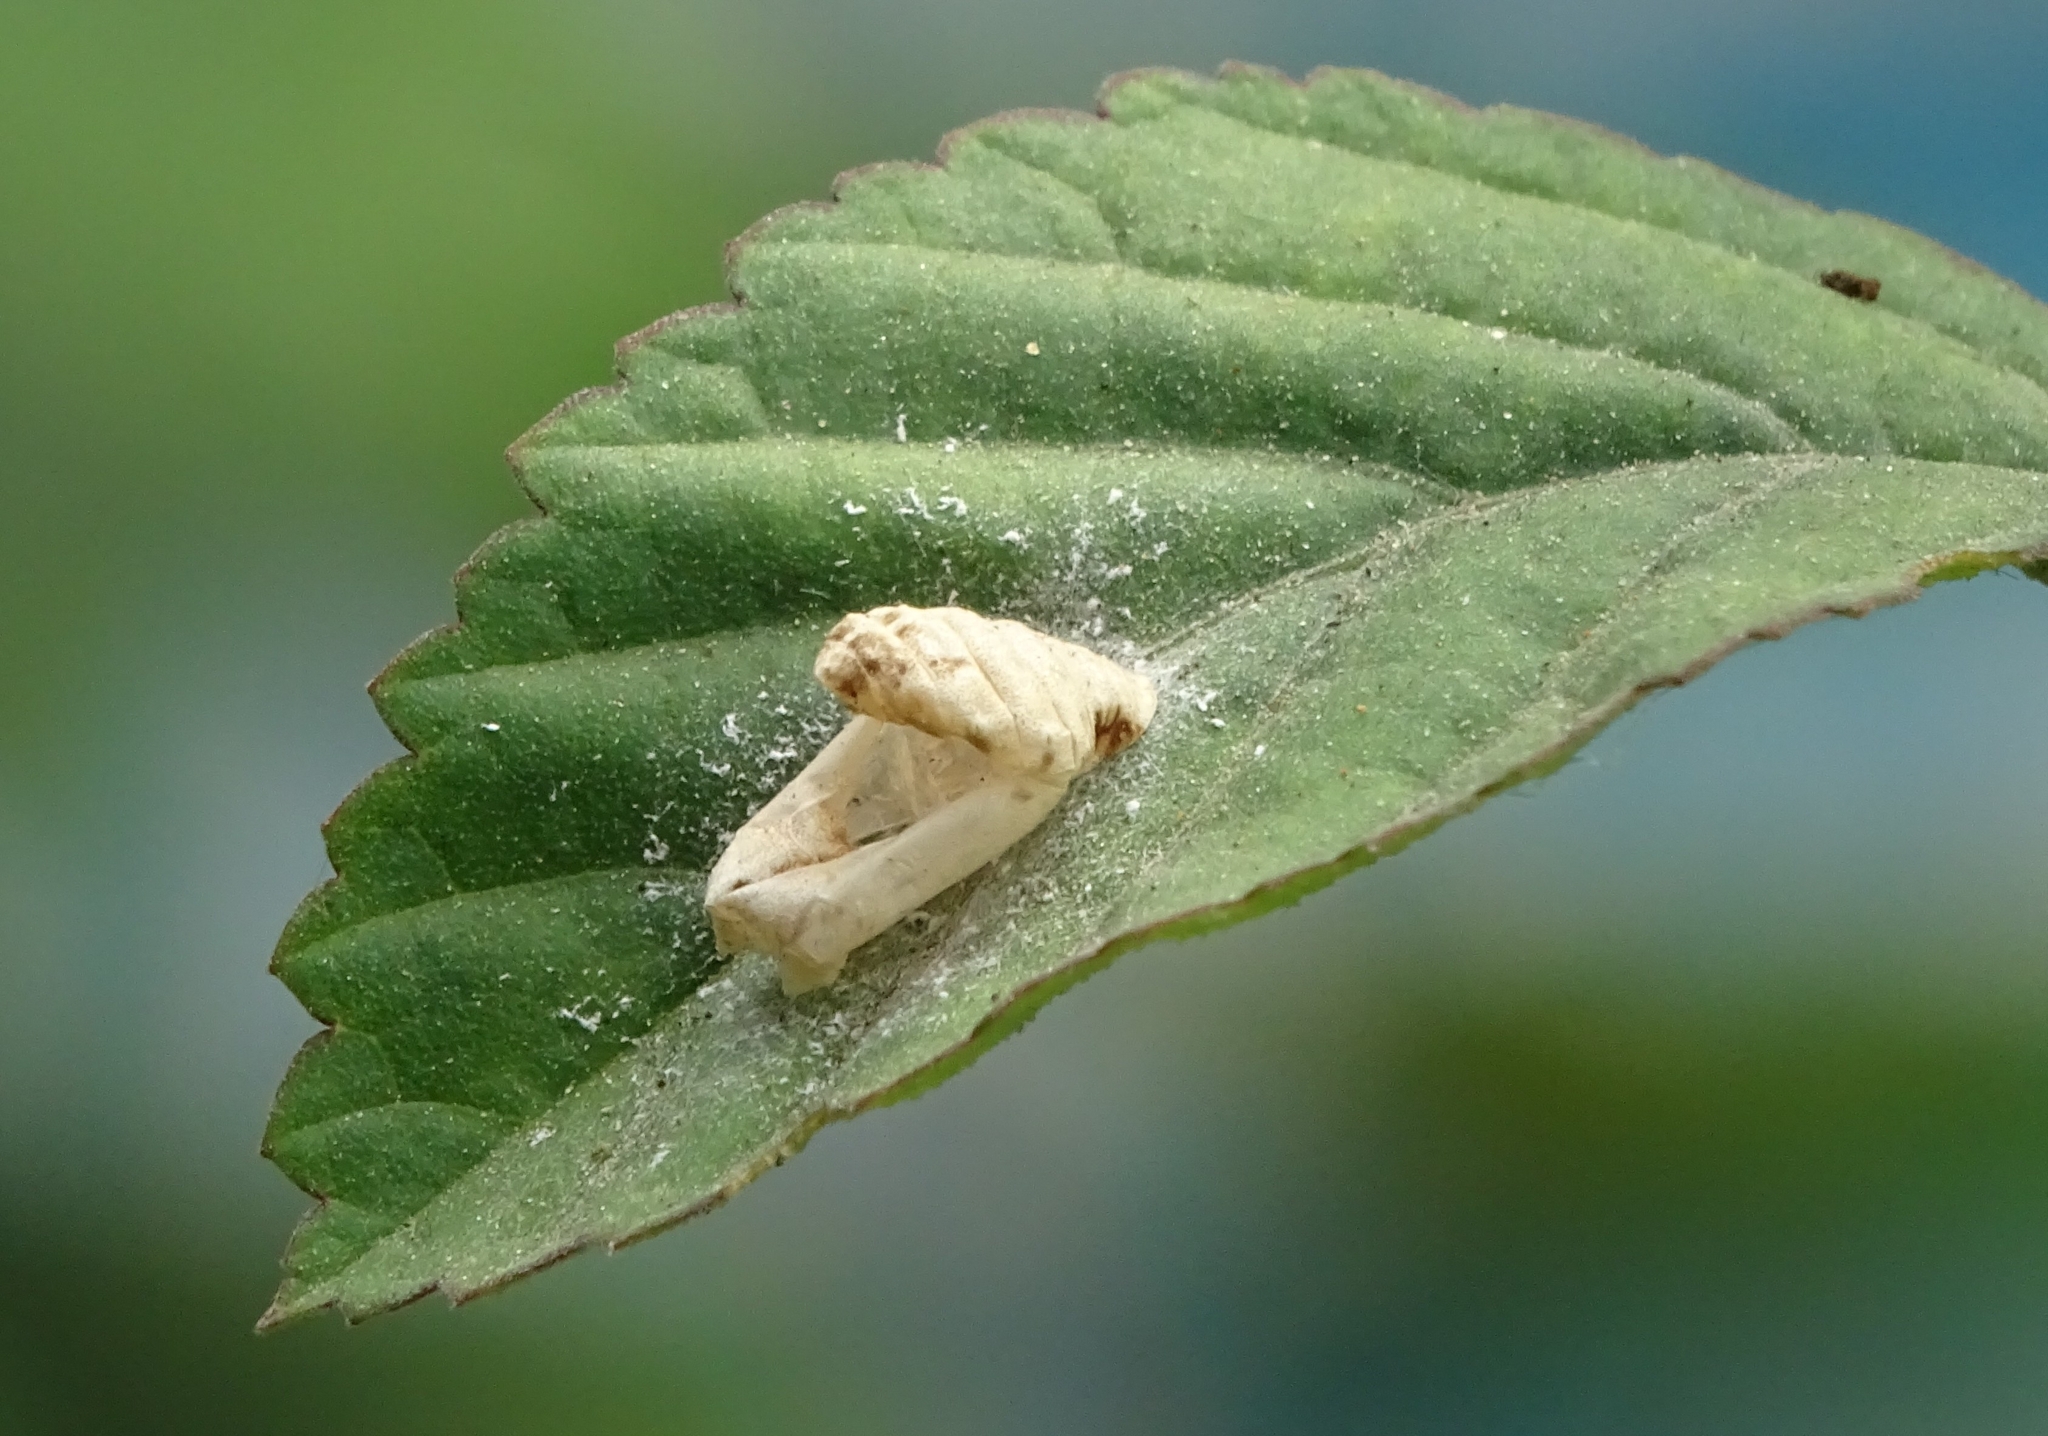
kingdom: Animalia
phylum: Arthropoda
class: Insecta
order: Lepidoptera
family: Lycaenidae
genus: Spalgis
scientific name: Spalgis epius
